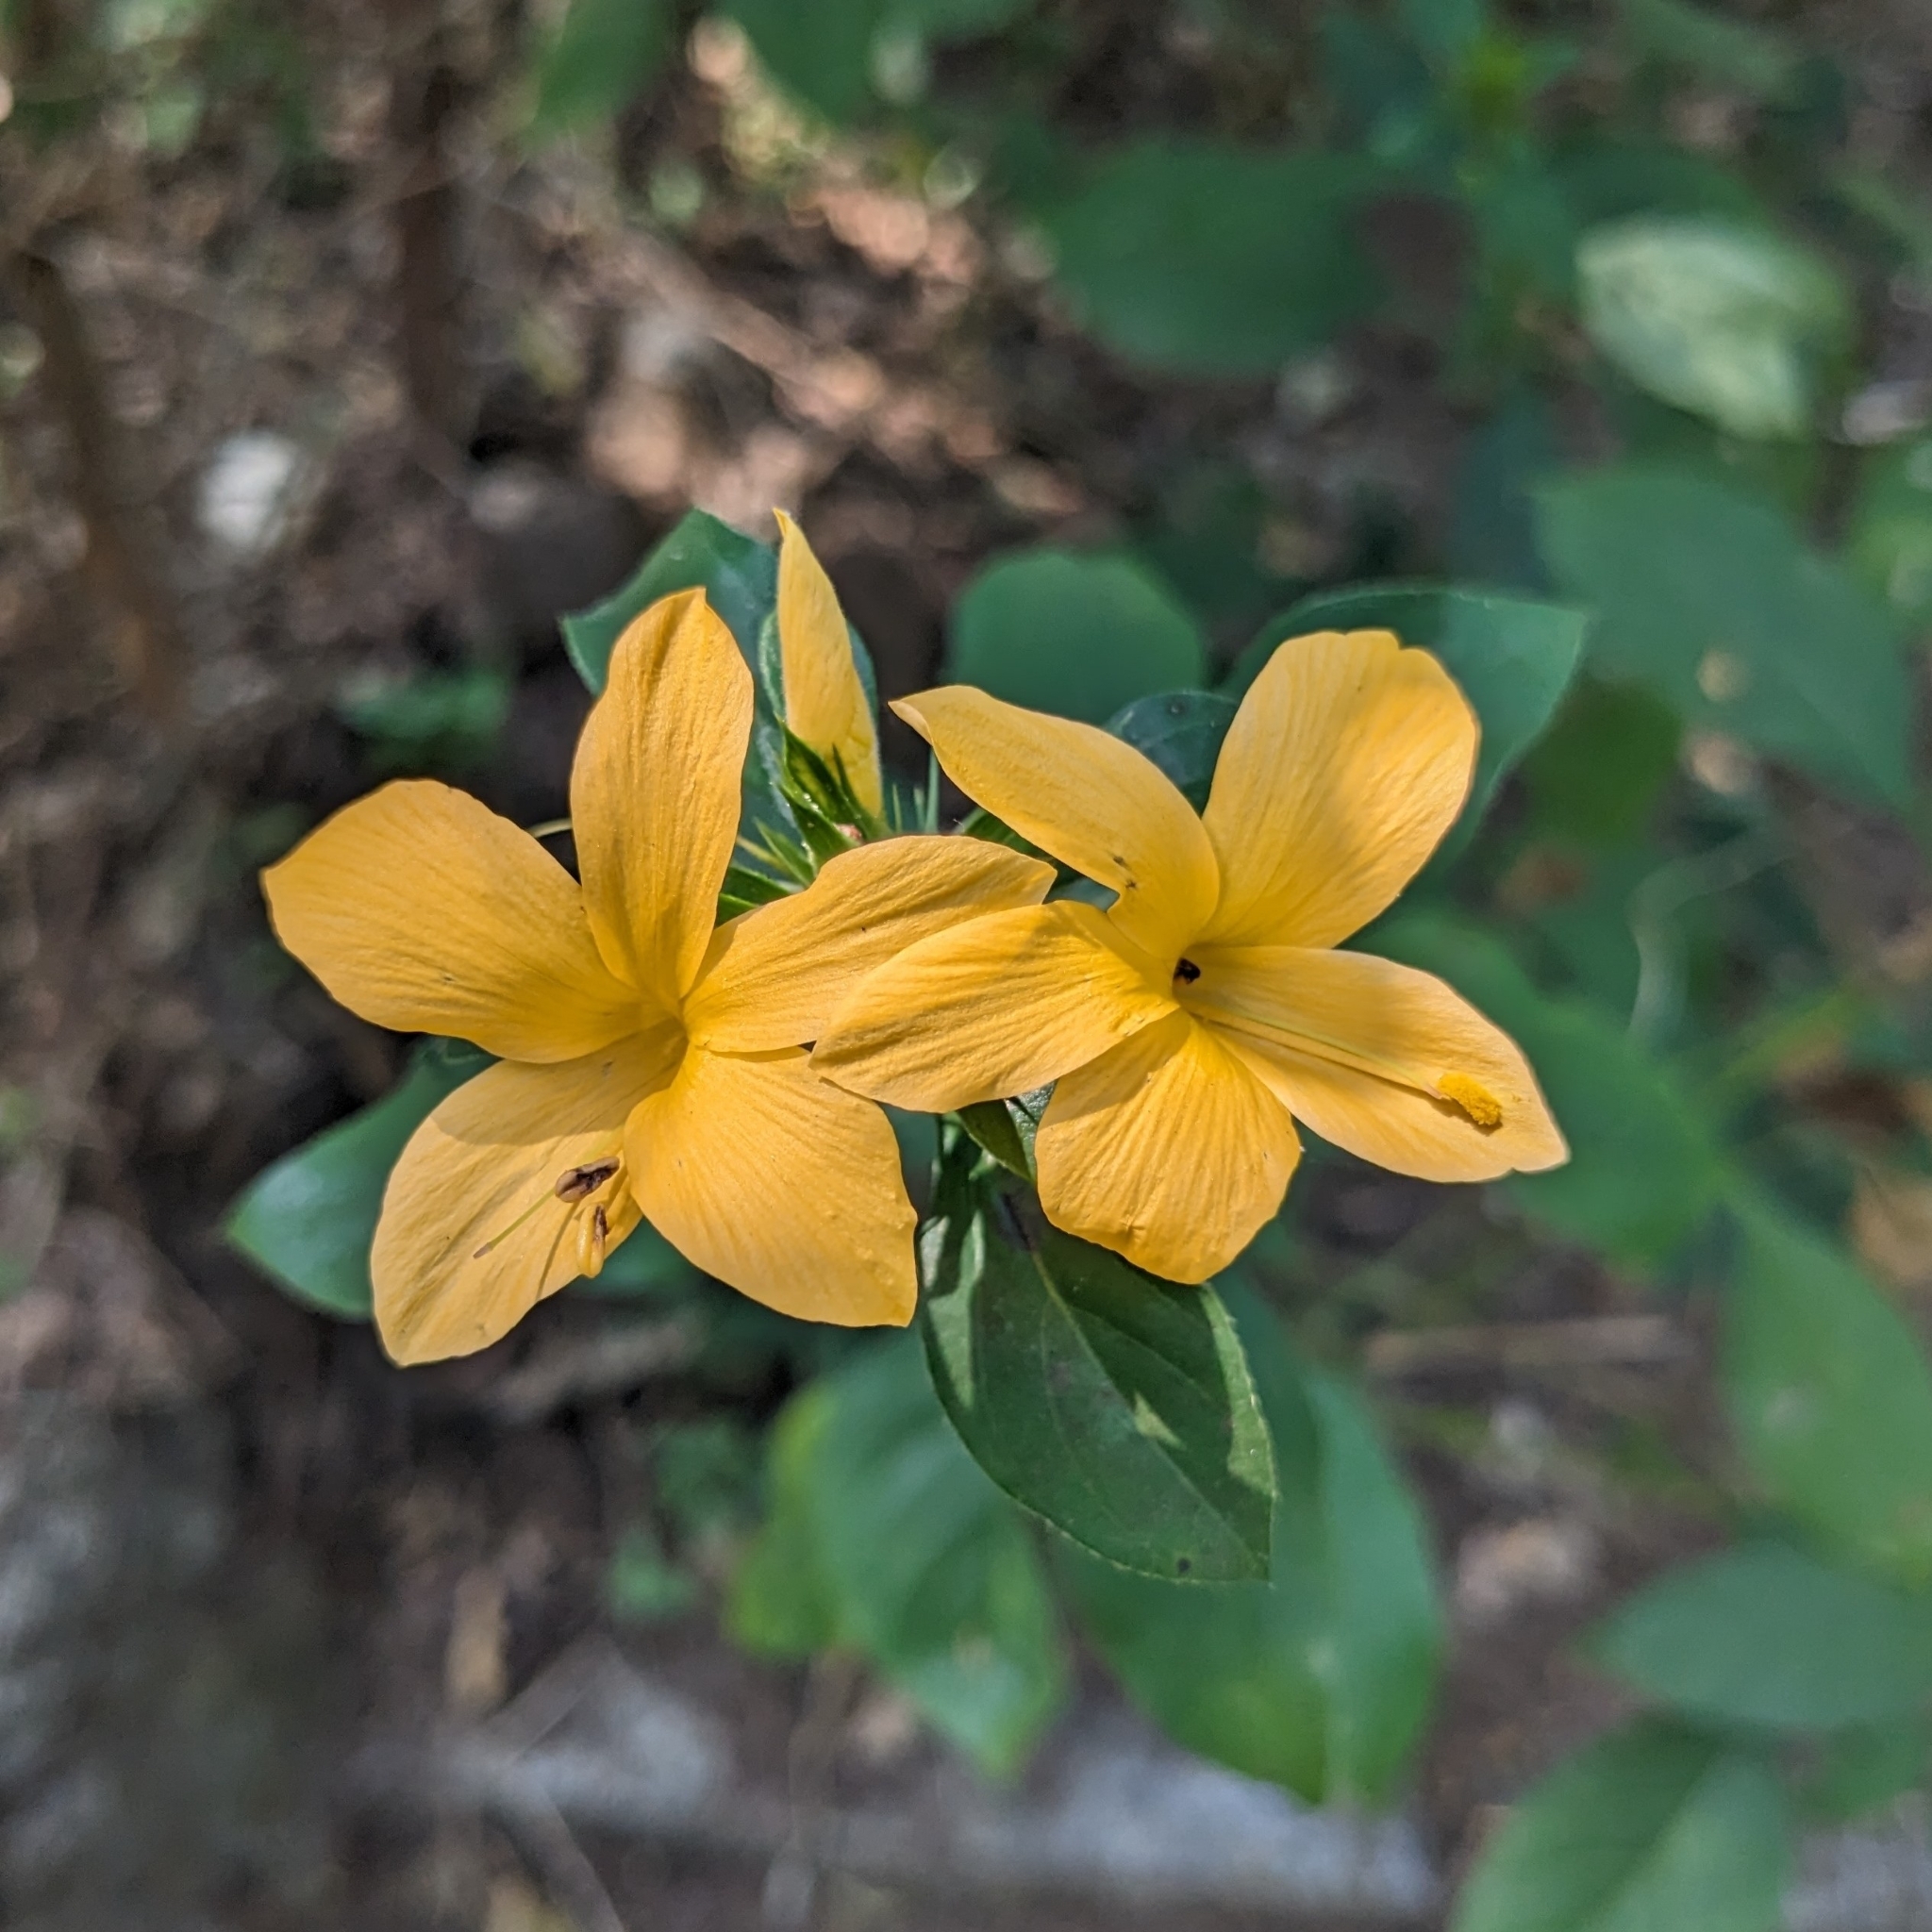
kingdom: Plantae
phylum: Tracheophyta
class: Magnoliopsida
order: Lamiales
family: Acanthaceae
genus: Barleria
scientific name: Barleria prionitis
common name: Barleria
